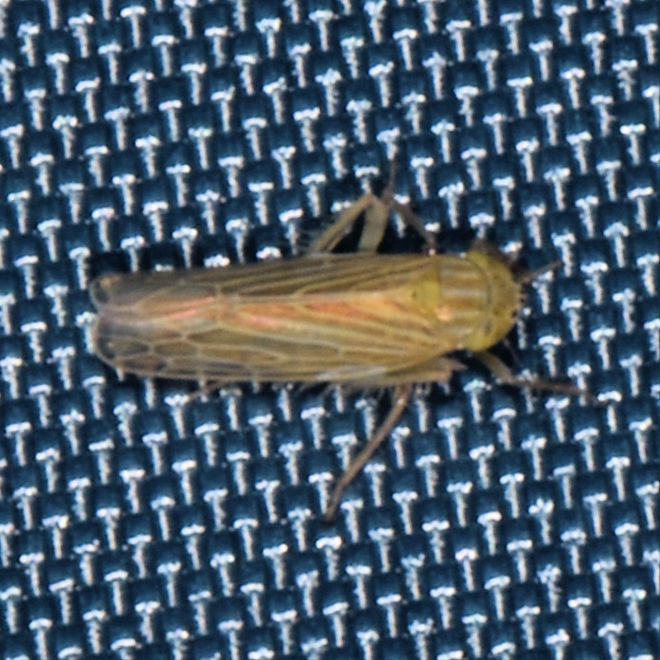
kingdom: Animalia
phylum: Arthropoda
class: Insecta
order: Hemiptera
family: Cicadellidae
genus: Graminella
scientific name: Graminella fitchii
